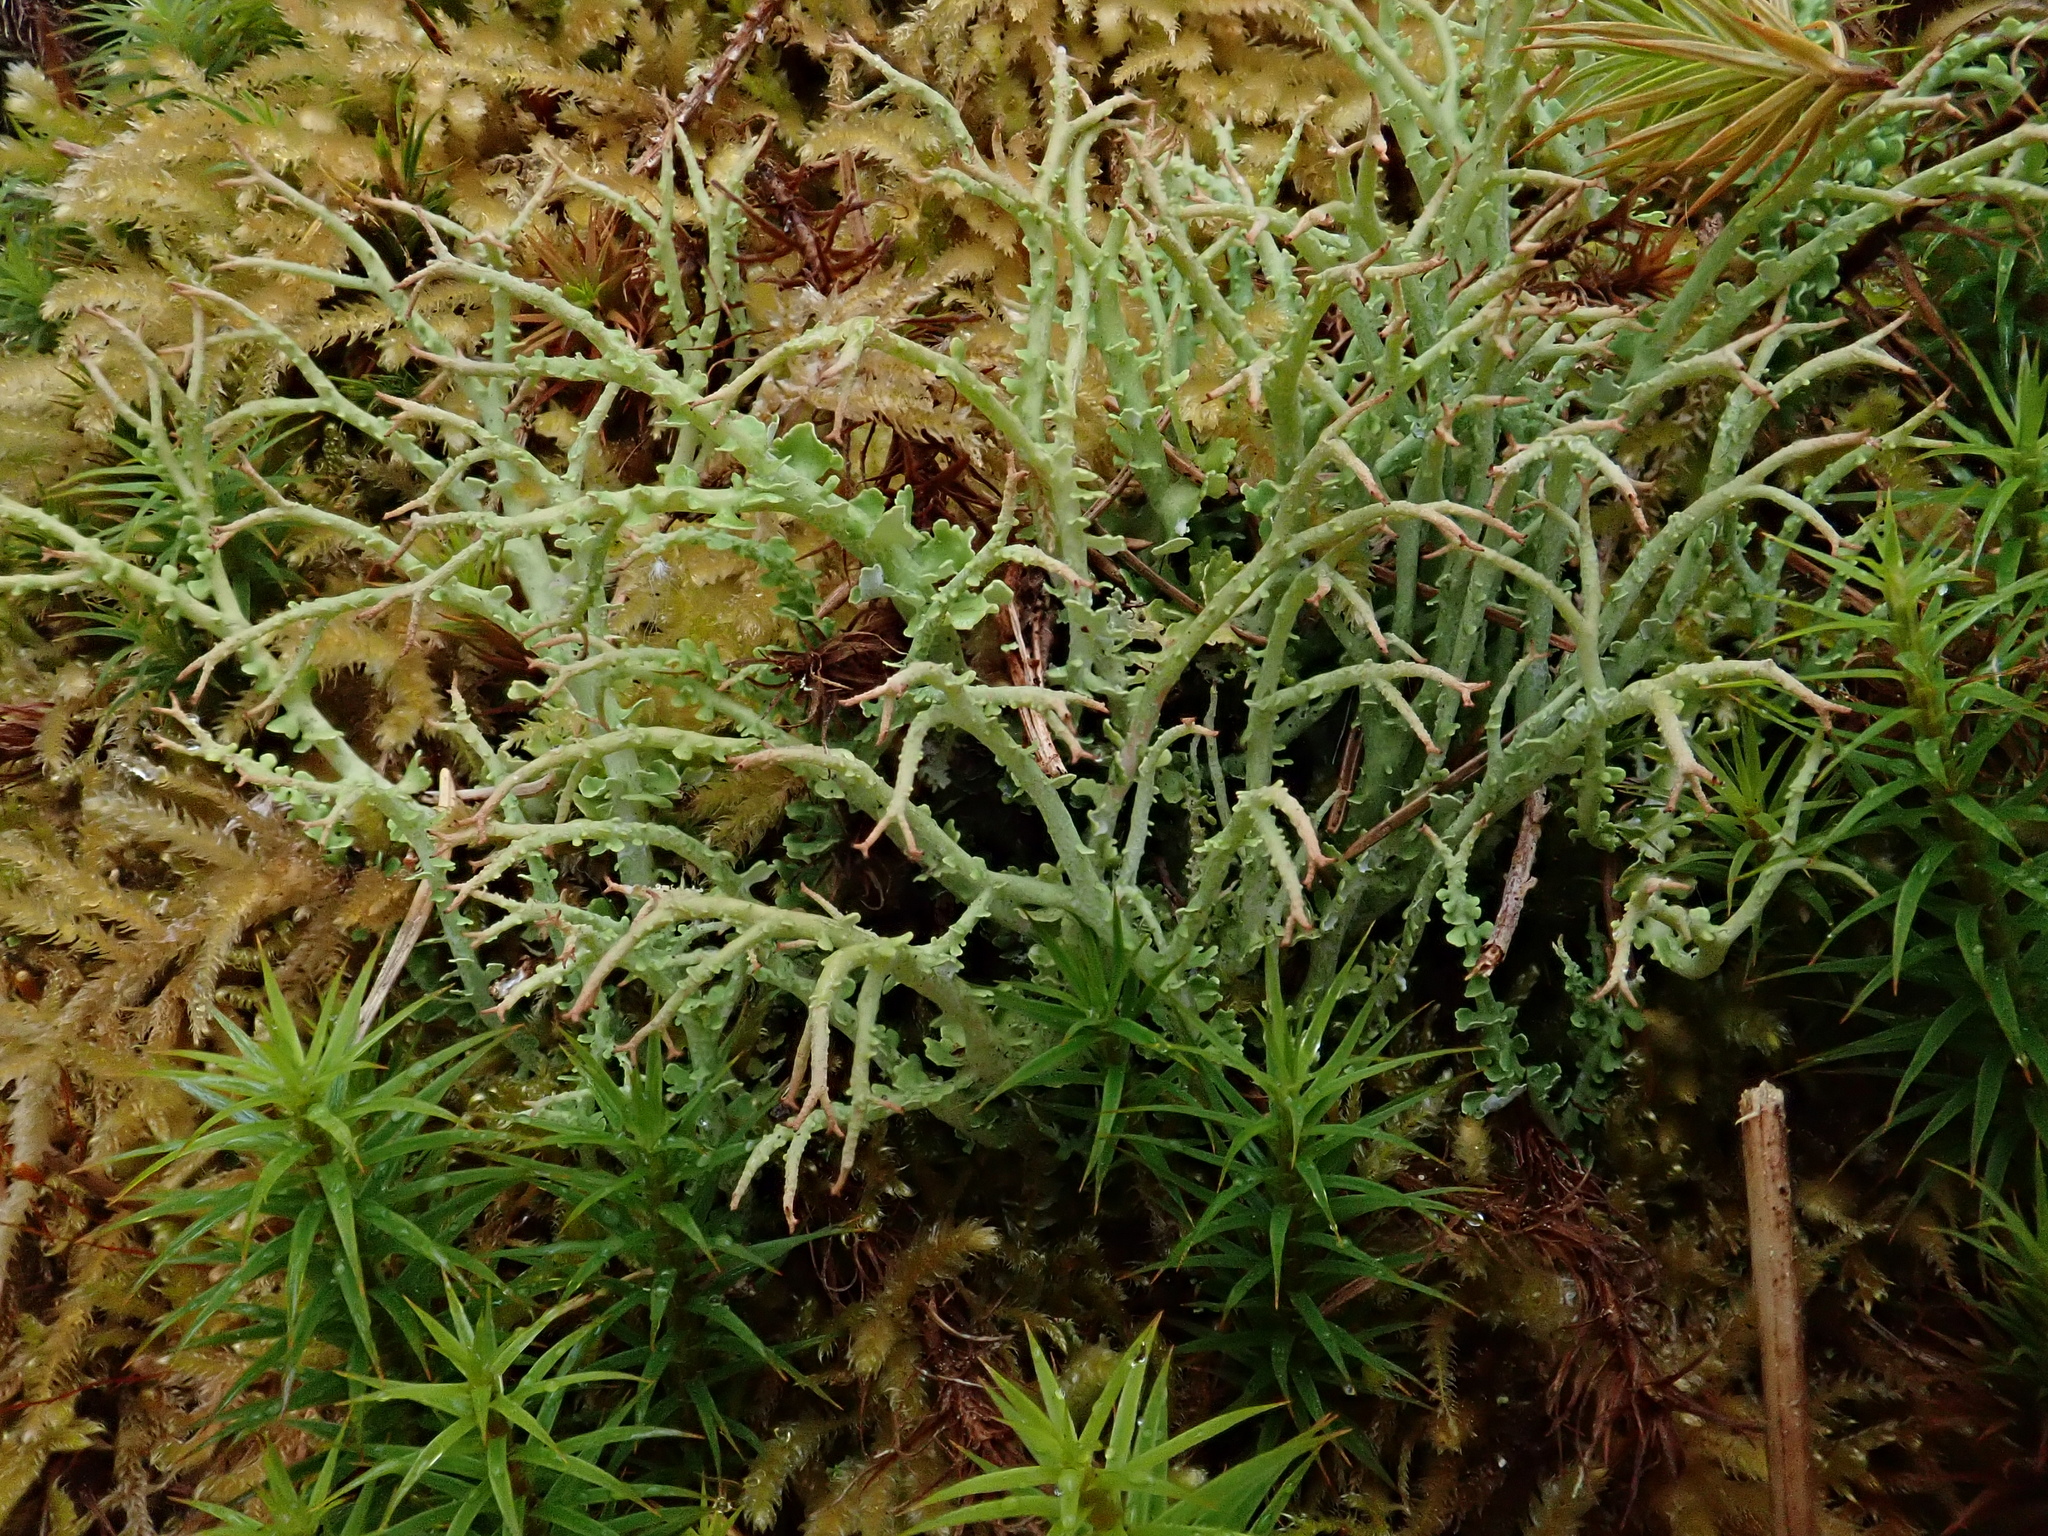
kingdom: Fungi
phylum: Ascomycota
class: Lecanoromycetes
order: Lecanorales
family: Cladoniaceae
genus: Cladonia
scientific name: Cladonia furcata
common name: Many-forked cladonia
